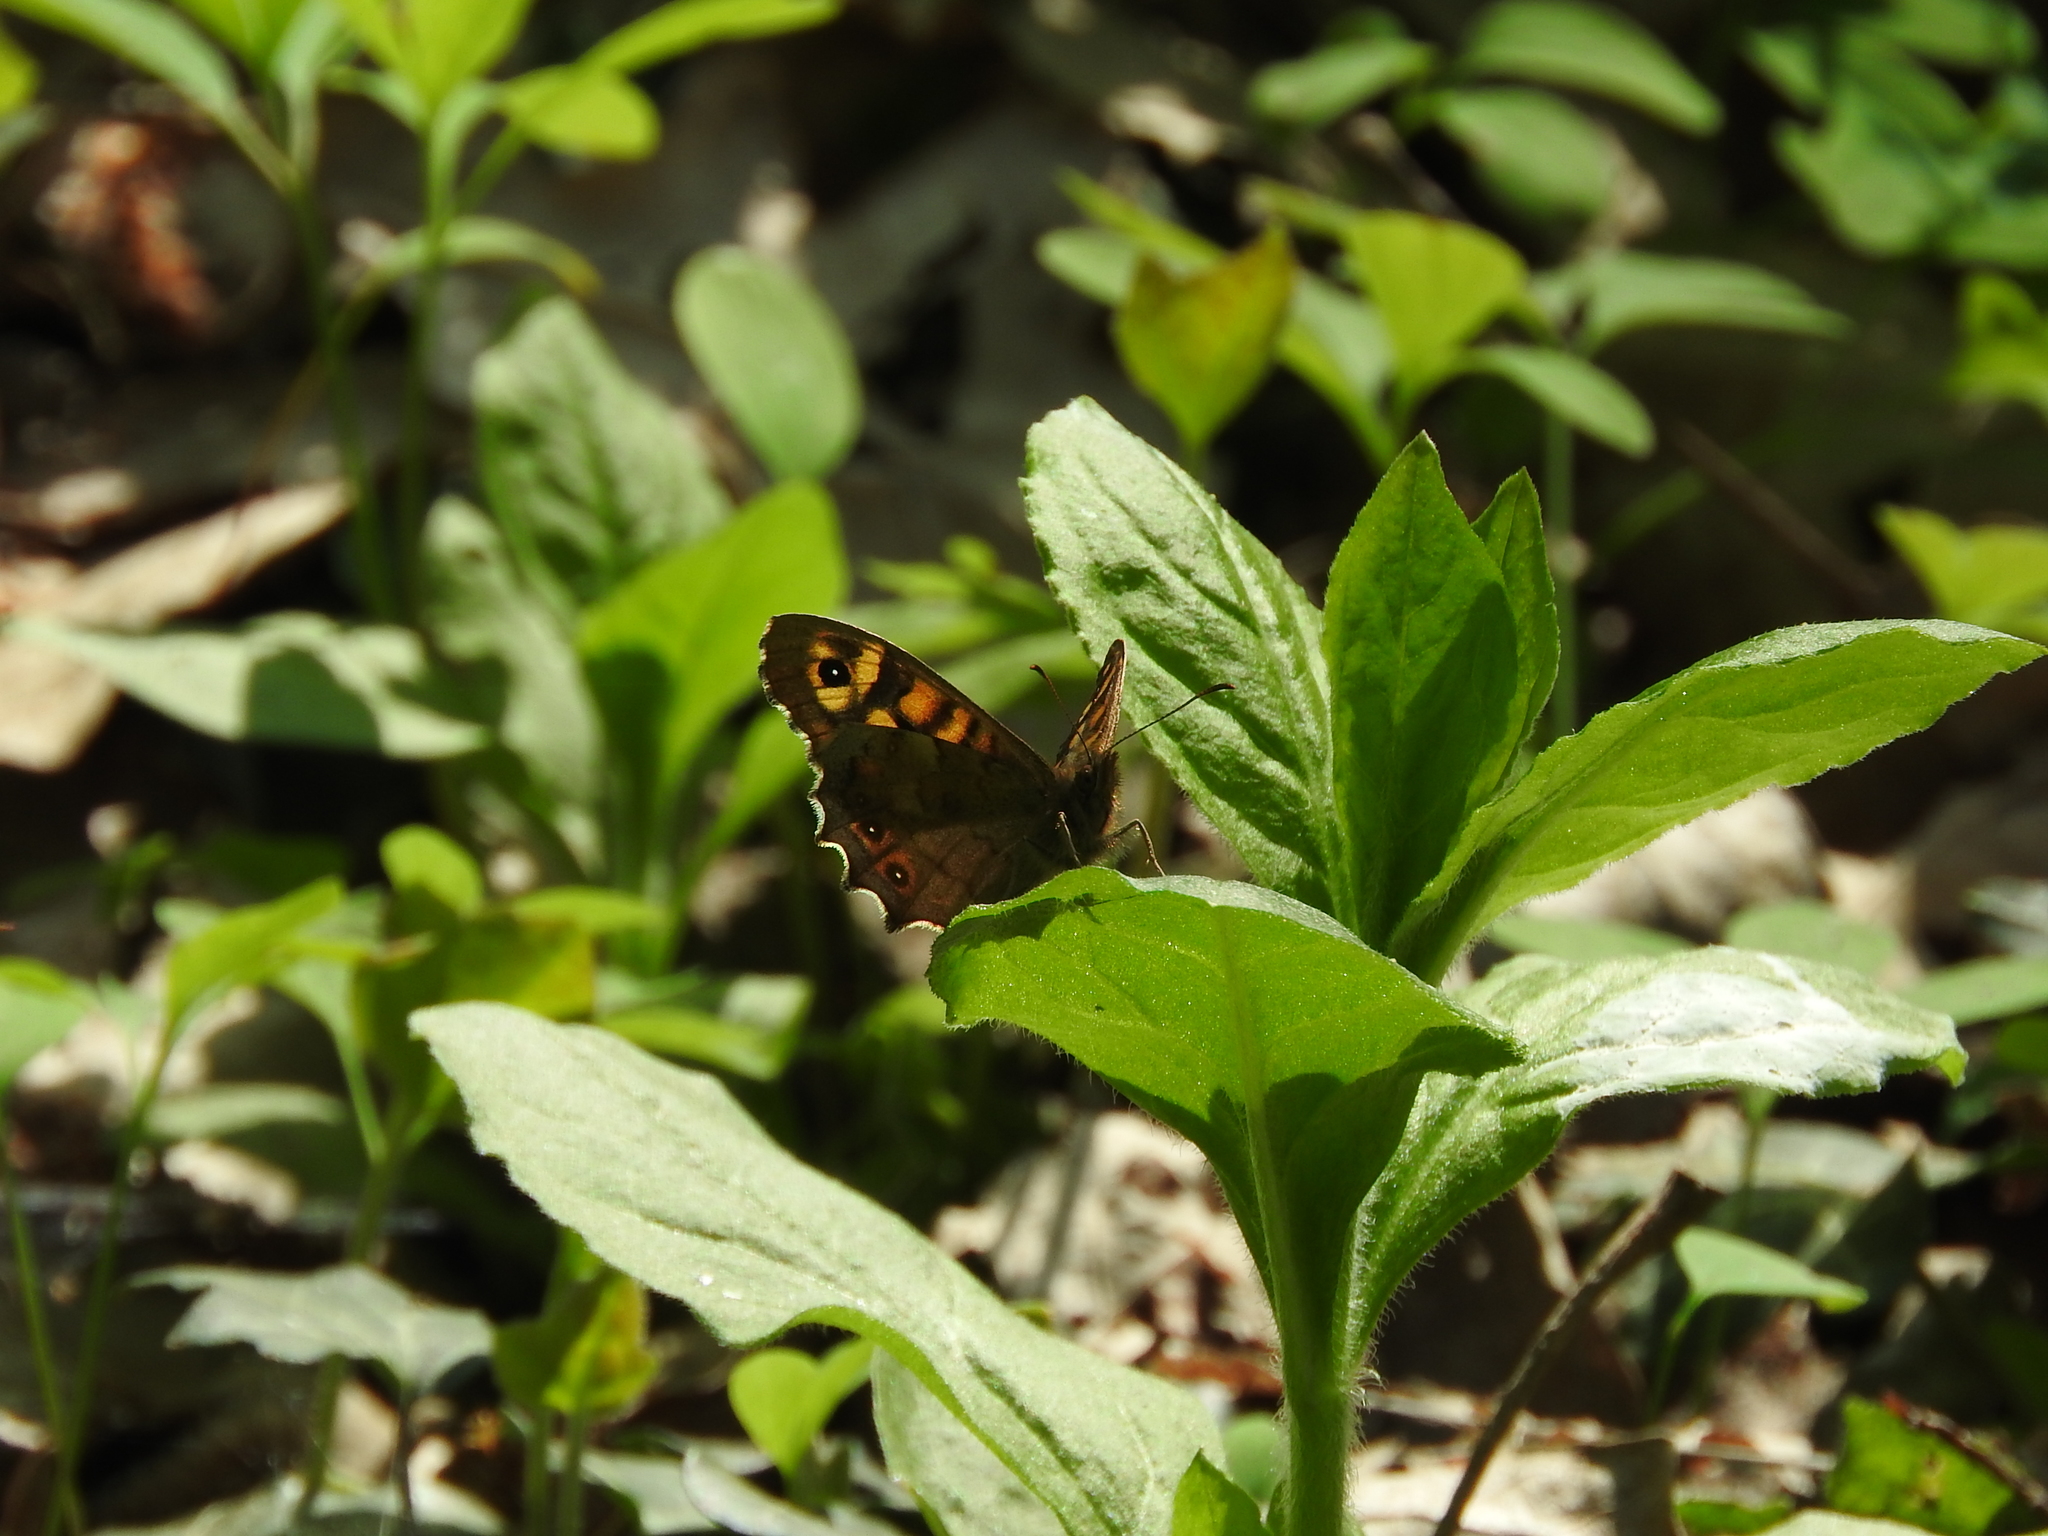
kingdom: Animalia
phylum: Arthropoda
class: Insecta
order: Lepidoptera
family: Nymphalidae
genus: Pararge
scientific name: Pararge aegeria
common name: Speckled wood
